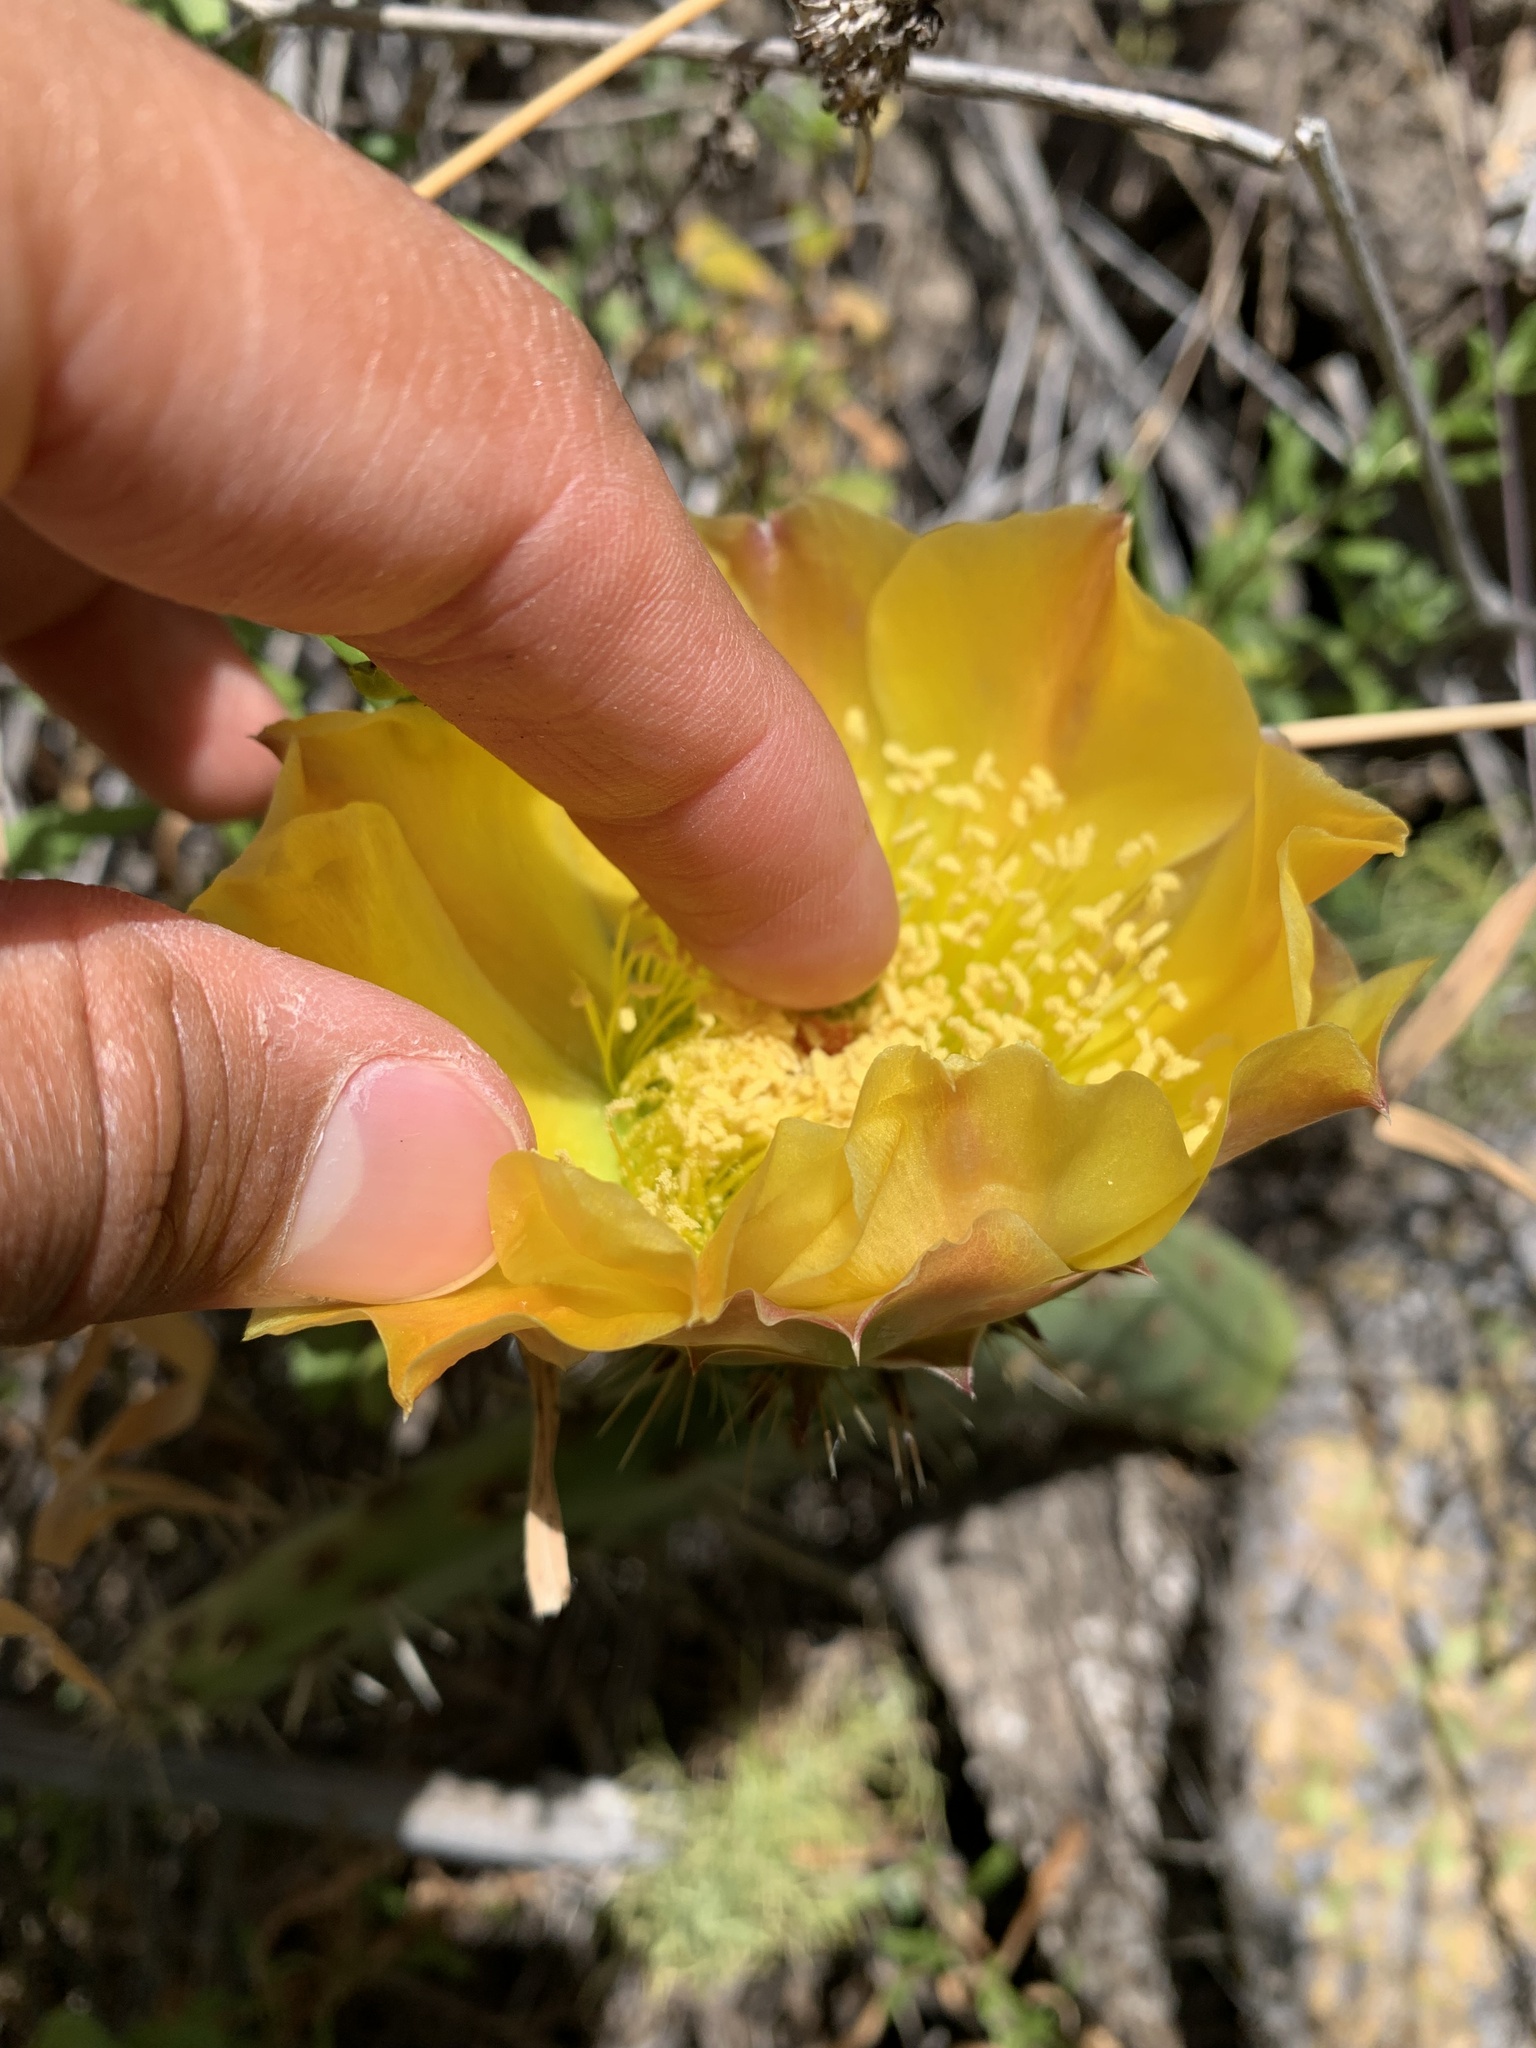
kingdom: Plantae
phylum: Tracheophyta
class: Magnoliopsida
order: Caryophyllales
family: Cactaceae
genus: Opuntia
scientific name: Opuntia littoralis
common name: Coastal prickly-pear
